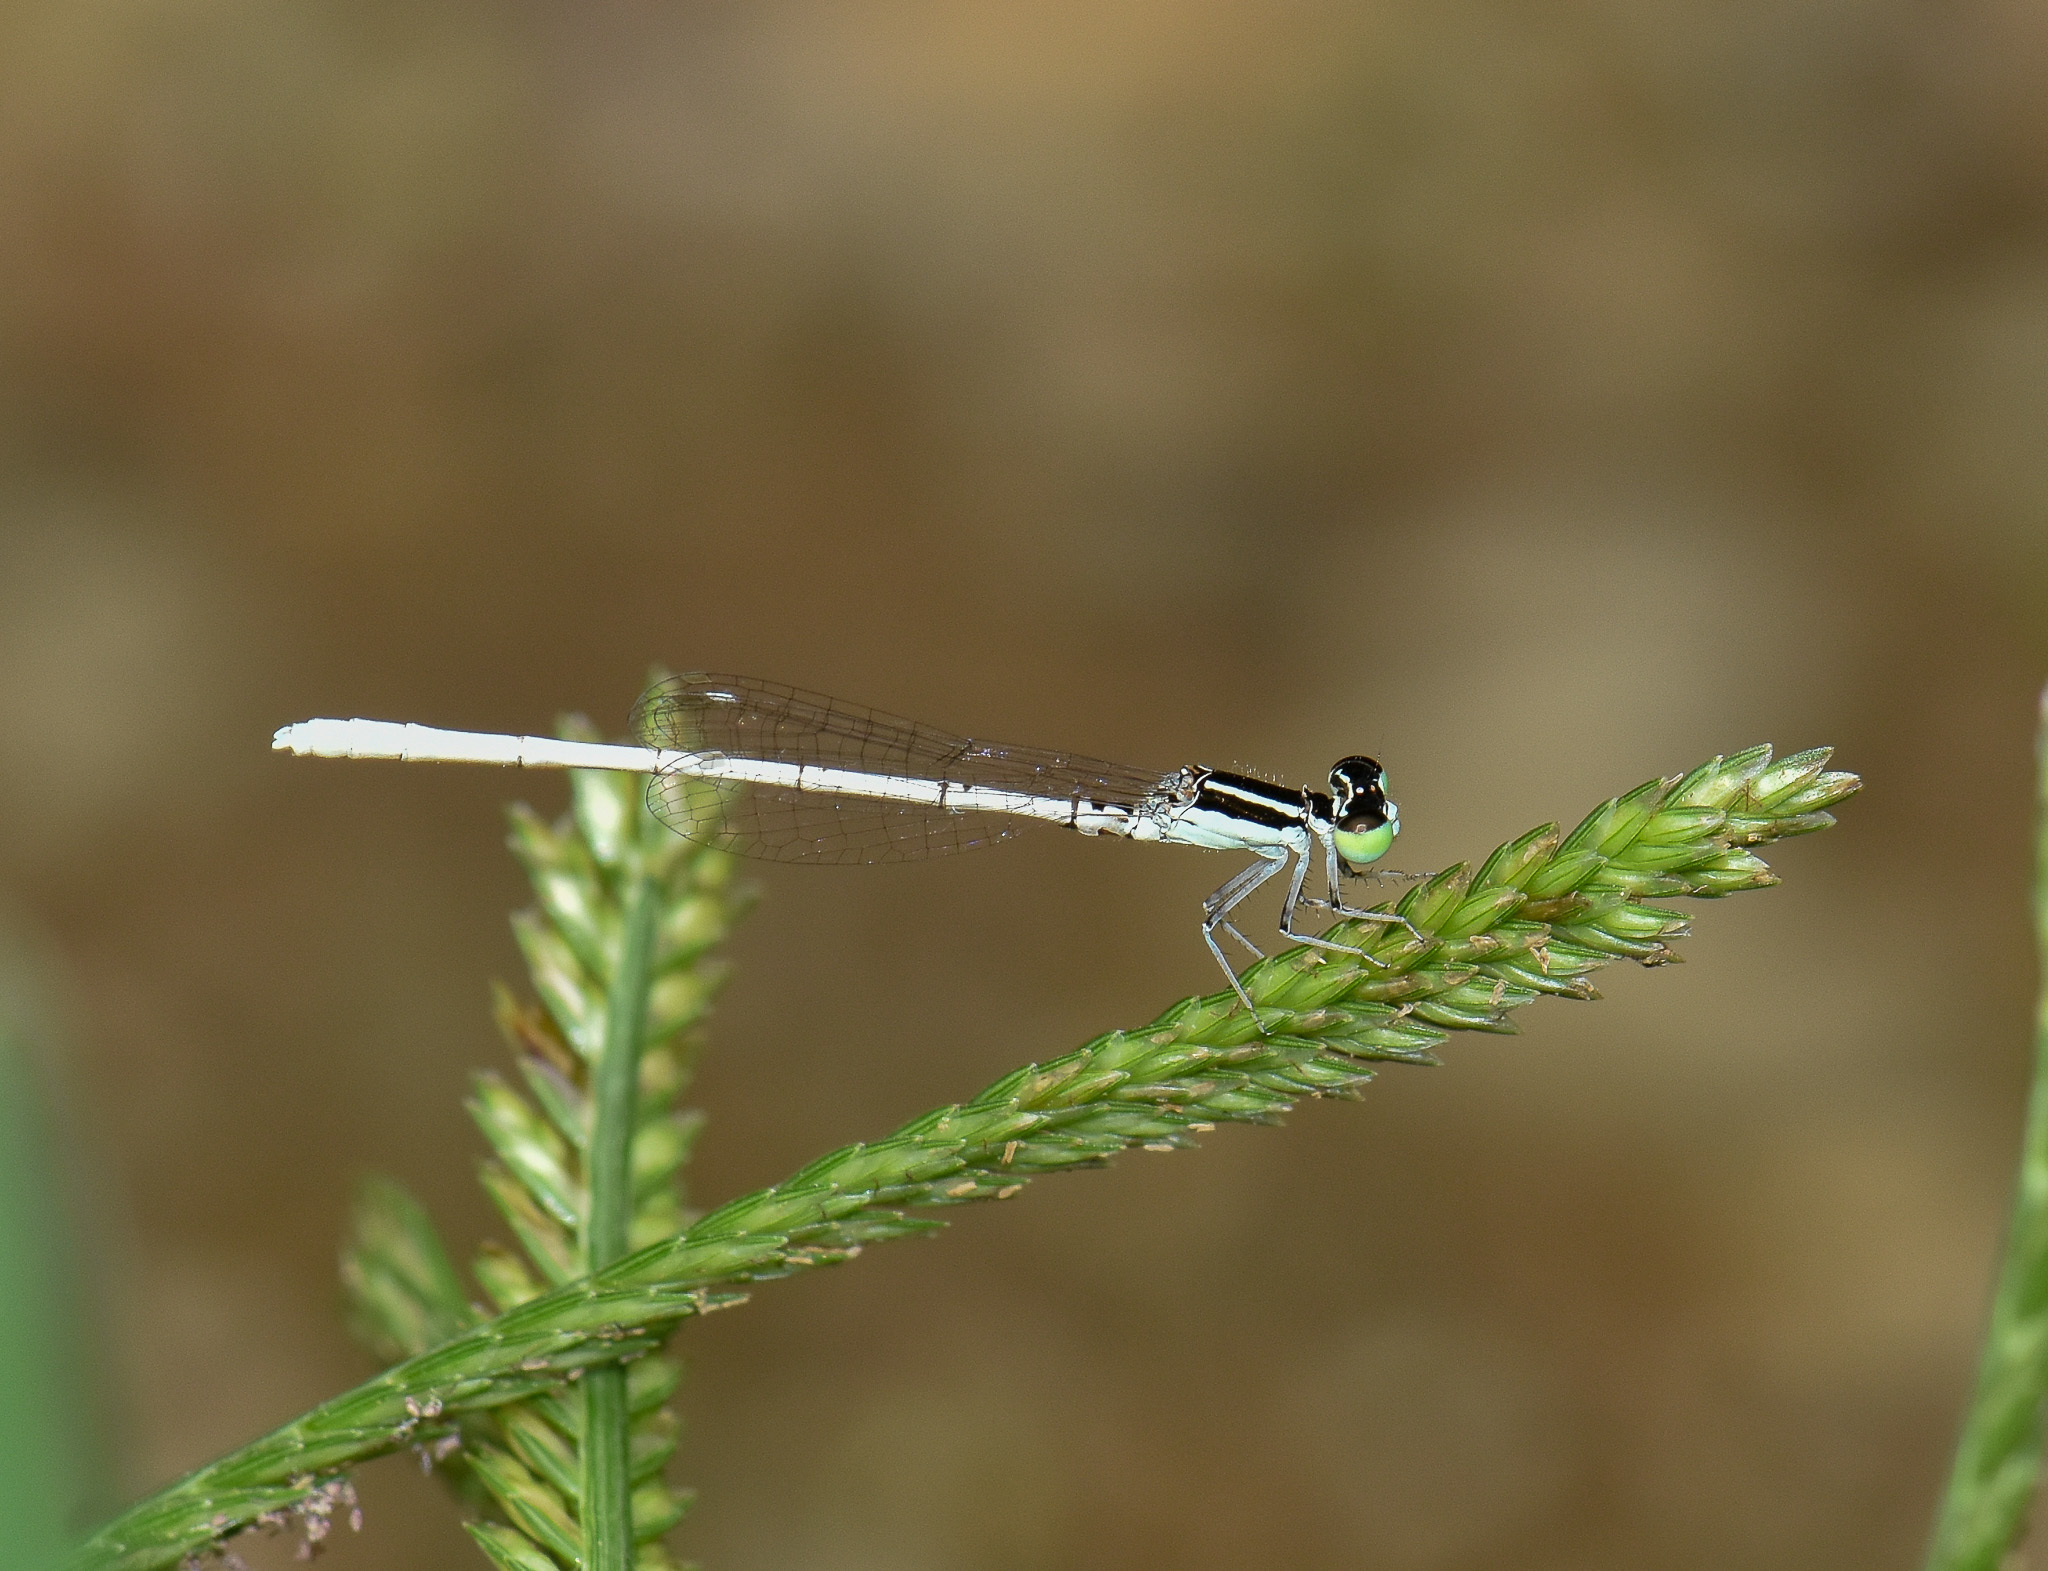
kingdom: Animalia
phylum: Arthropoda
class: Insecta
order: Odonata
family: Coenagrionidae
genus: Agriocnemis
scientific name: Agriocnemis lacteola
